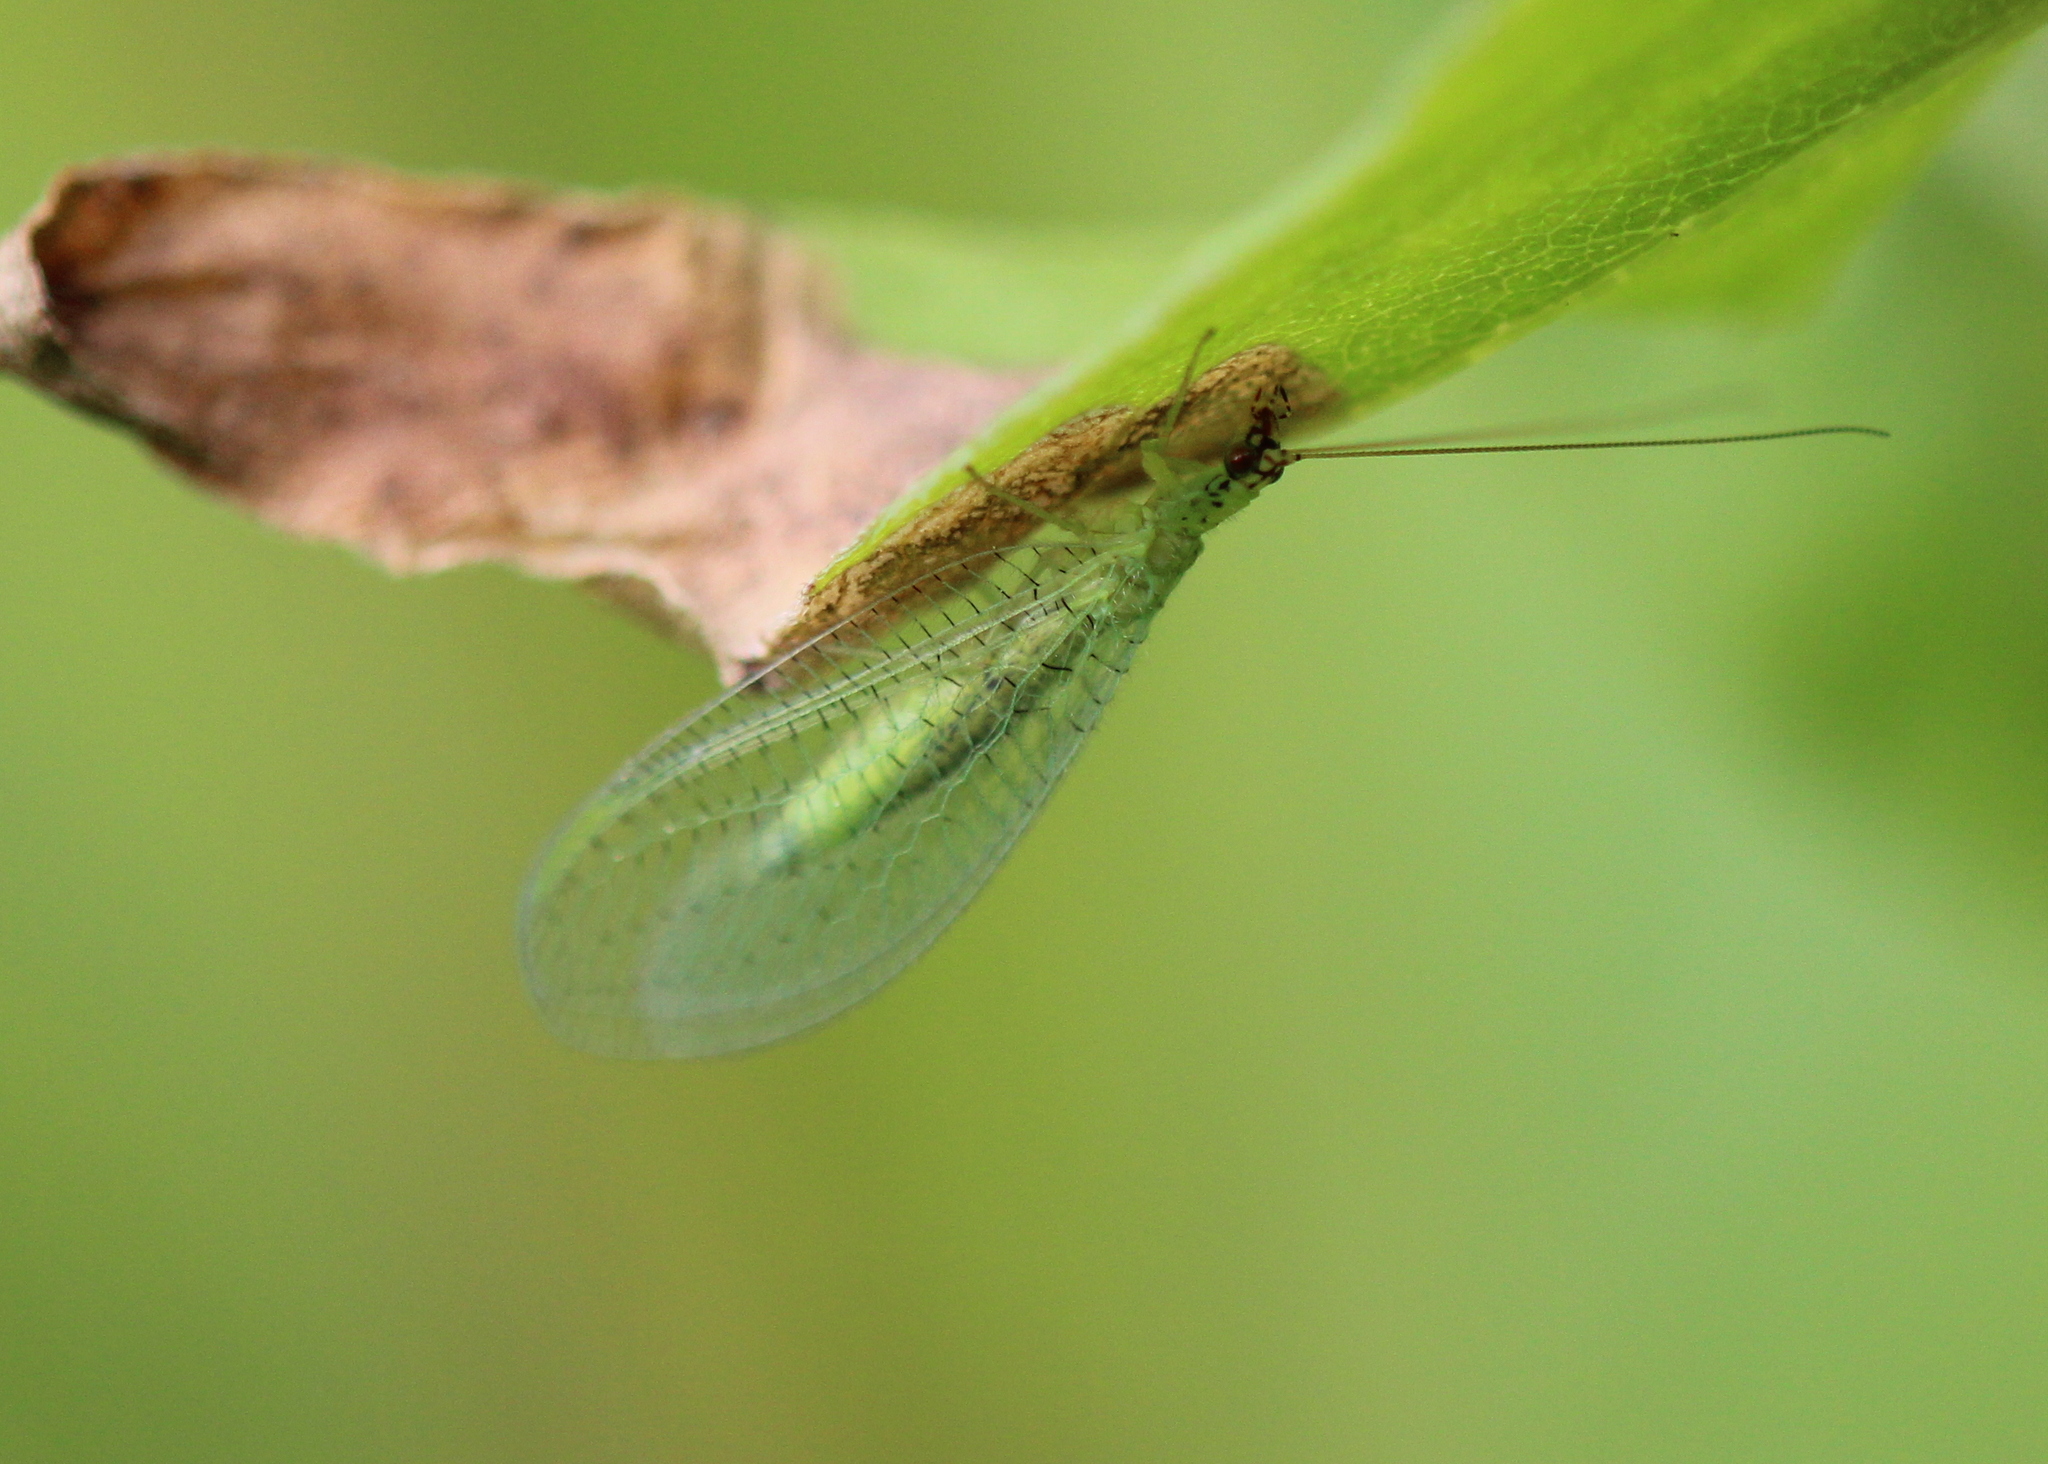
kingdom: Animalia
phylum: Arthropoda
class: Insecta
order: Neuroptera
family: Chrysopidae
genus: Chrysopa
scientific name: Chrysopa oculata
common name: Golden-eyed lacewing
